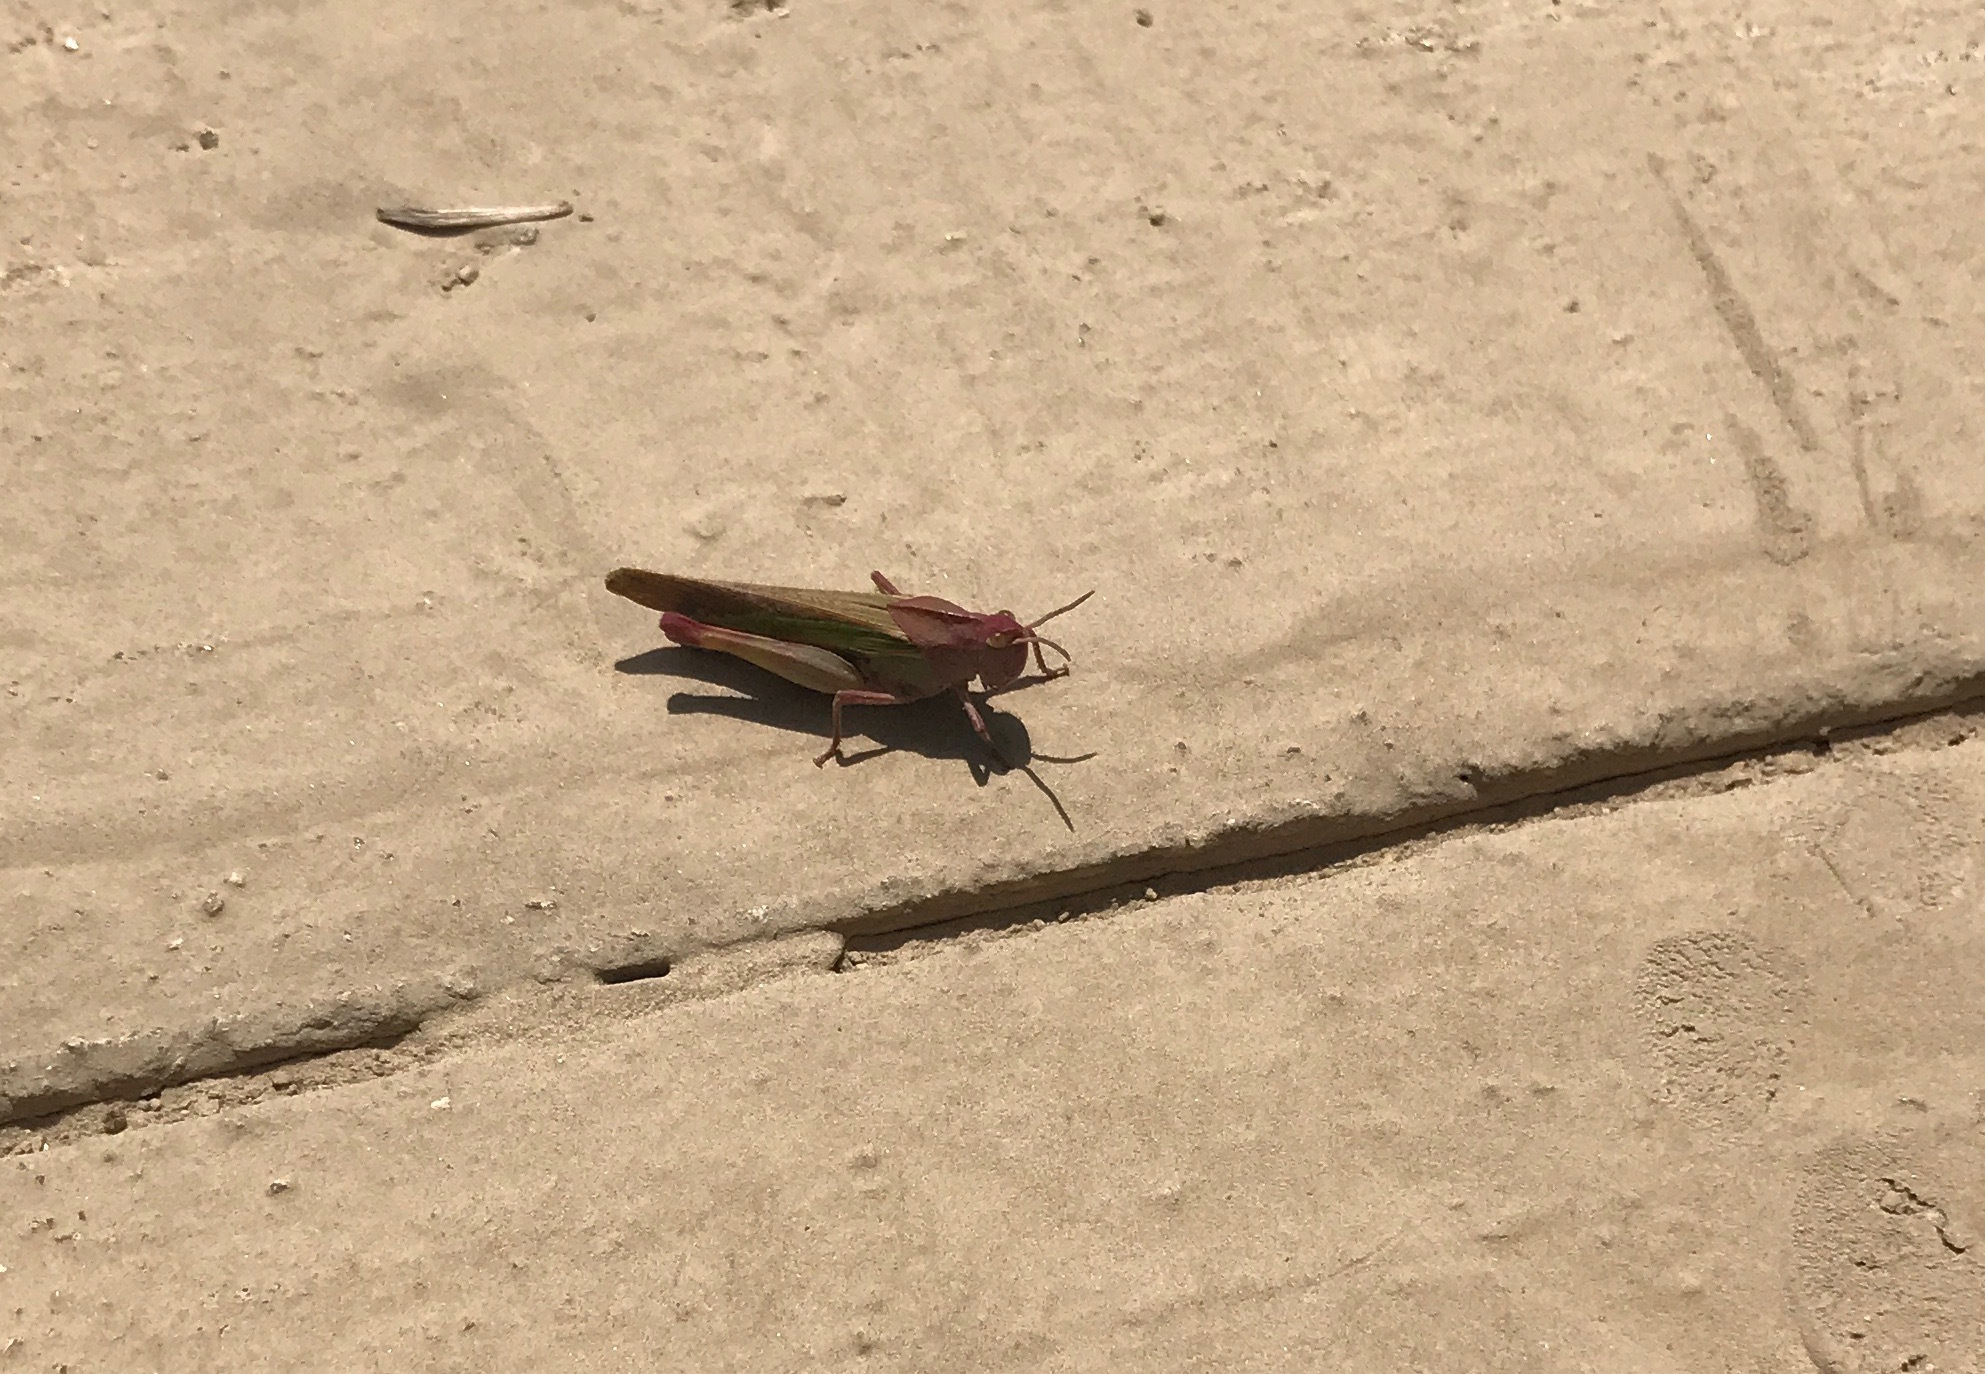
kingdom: Animalia
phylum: Arthropoda
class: Insecta
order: Orthoptera
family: Acrididae
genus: Chortophaga
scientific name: Chortophaga viridifasciata
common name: Green-striped grasshopper
